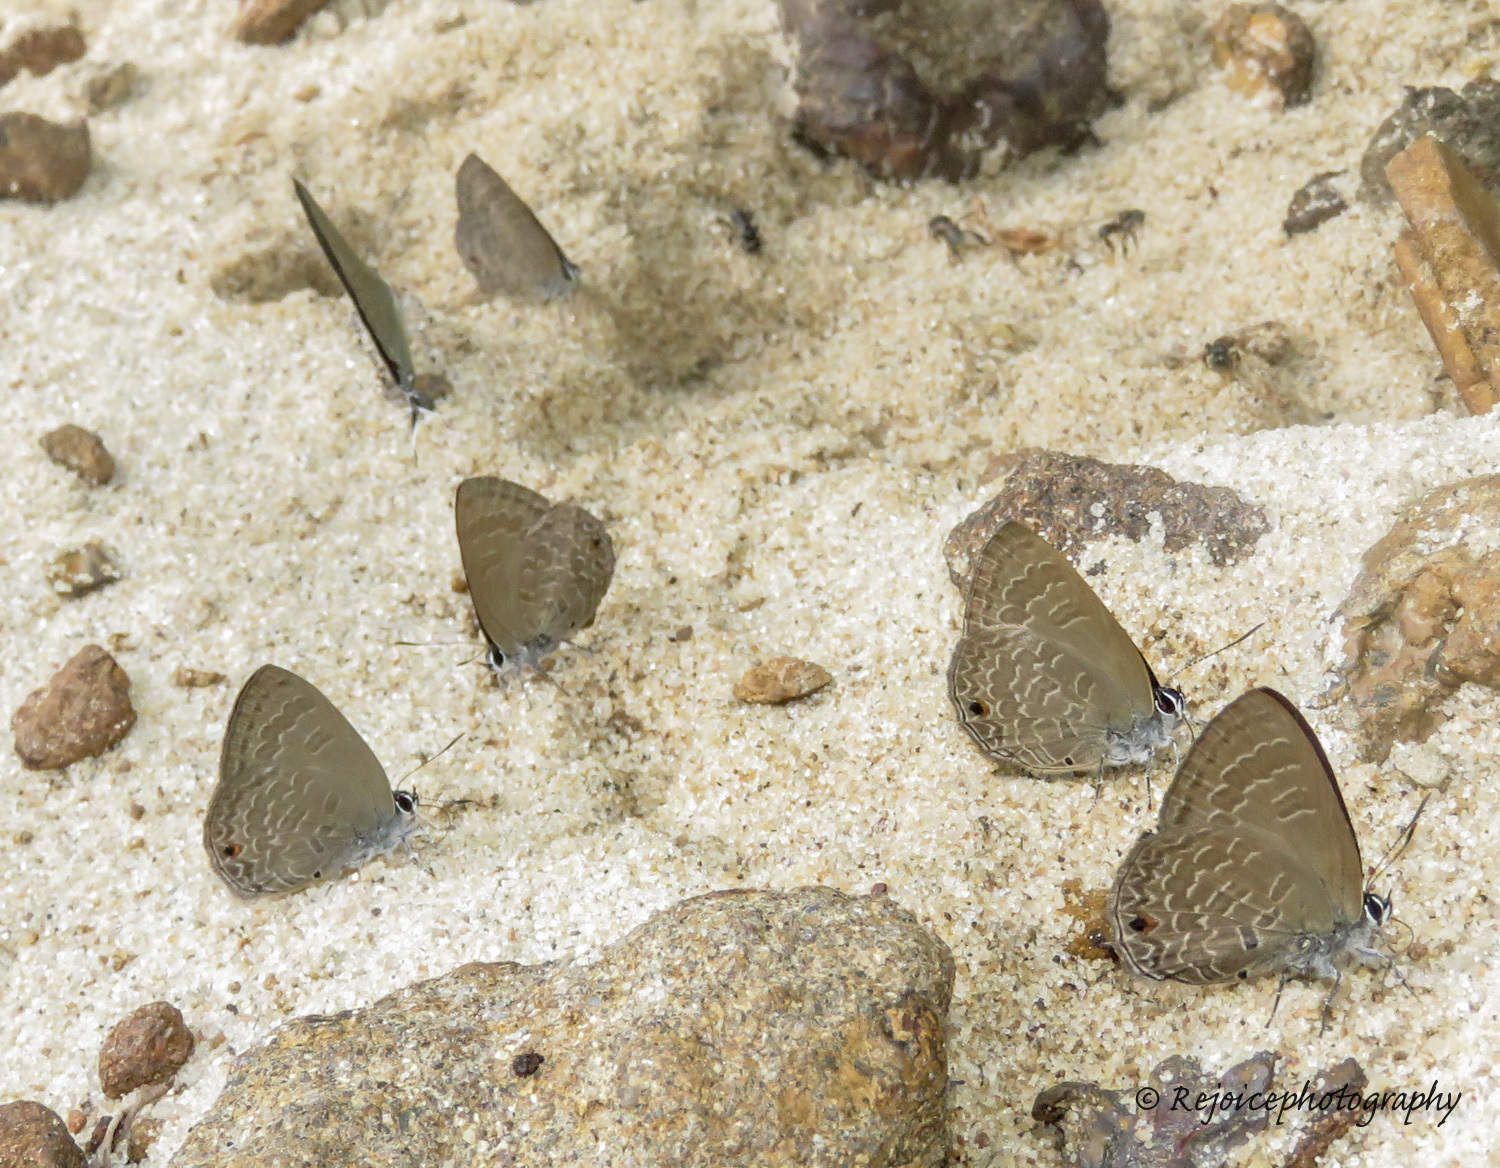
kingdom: Animalia
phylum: Arthropoda
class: Insecta
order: Lepidoptera
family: Lycaenidae
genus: Anthene
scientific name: Anthene emolus
